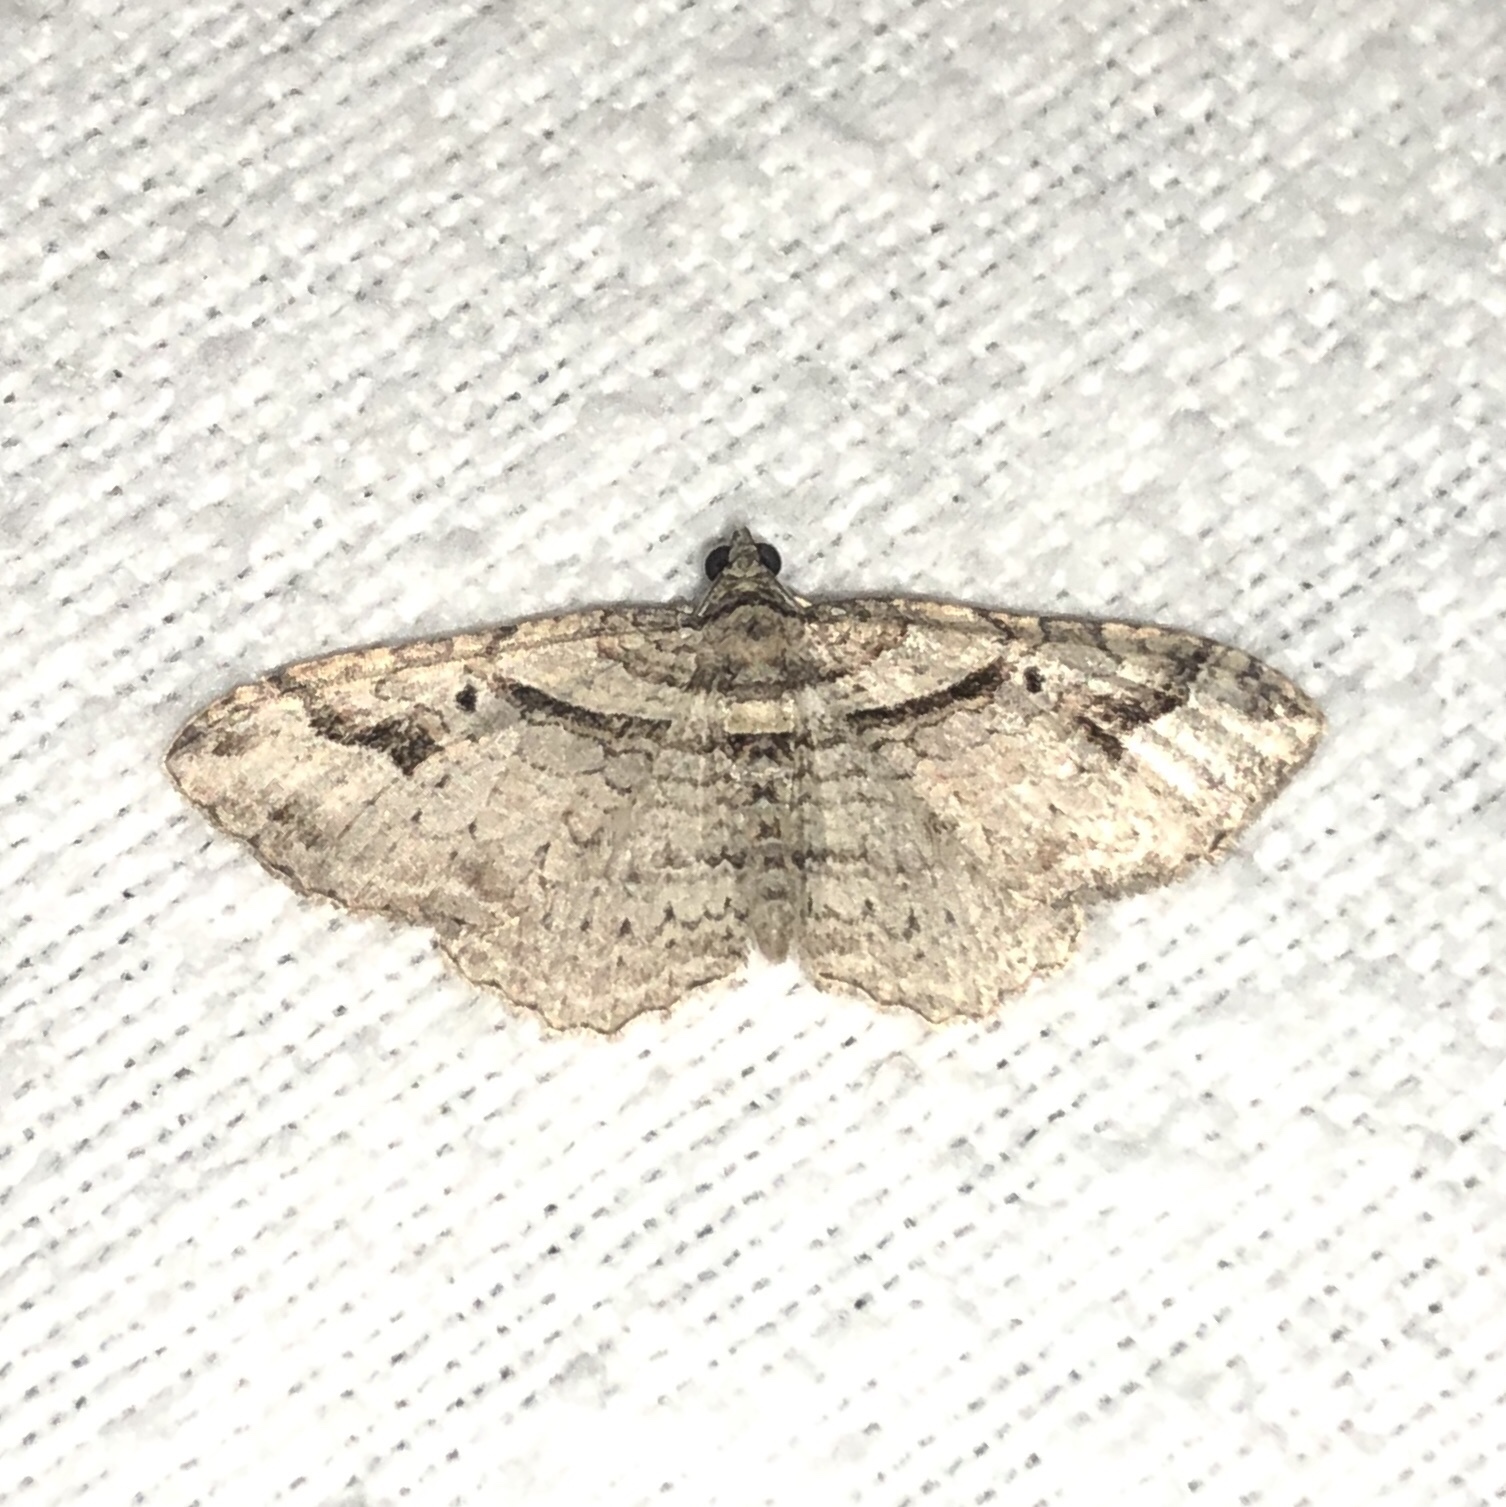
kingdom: Animalia
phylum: Arthropoda
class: Insecta
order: Lepidoptera
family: Geometridae
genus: Costaconvexa
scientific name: Costaconvexa centrostrigaria
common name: Bent-line carpet
